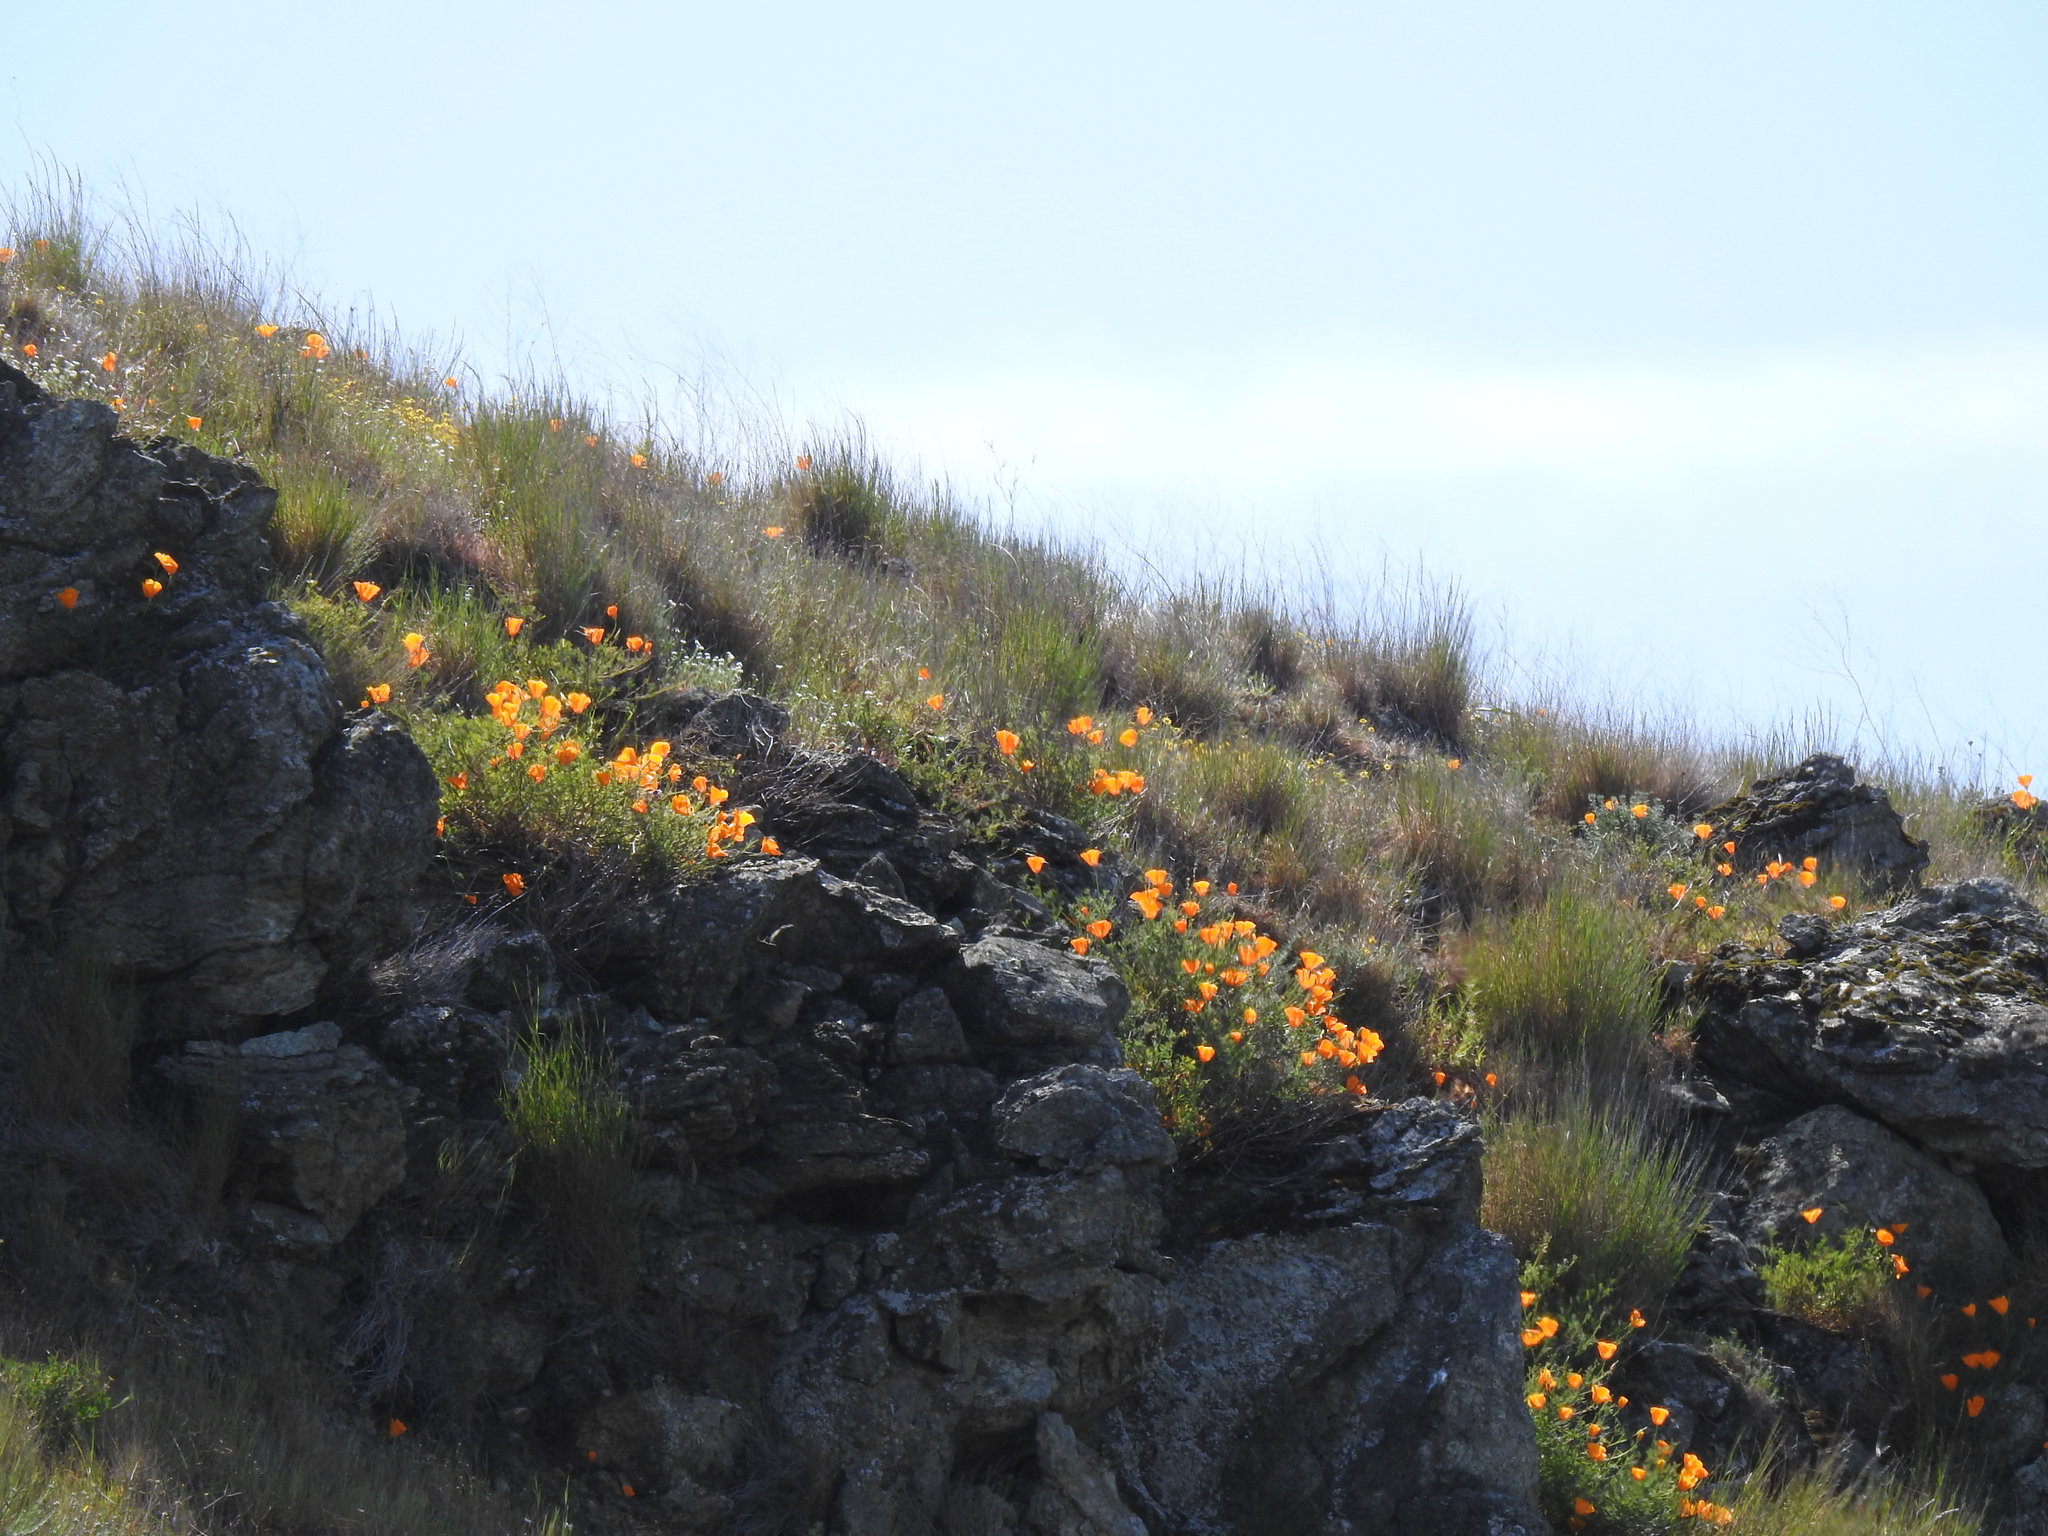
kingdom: Plantae
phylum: Tracheophyta
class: Magnoliopsida
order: Ranunculales
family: Papaveraceae
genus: Eschscholzia
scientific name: Eschscholzia californica
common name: California poppy
